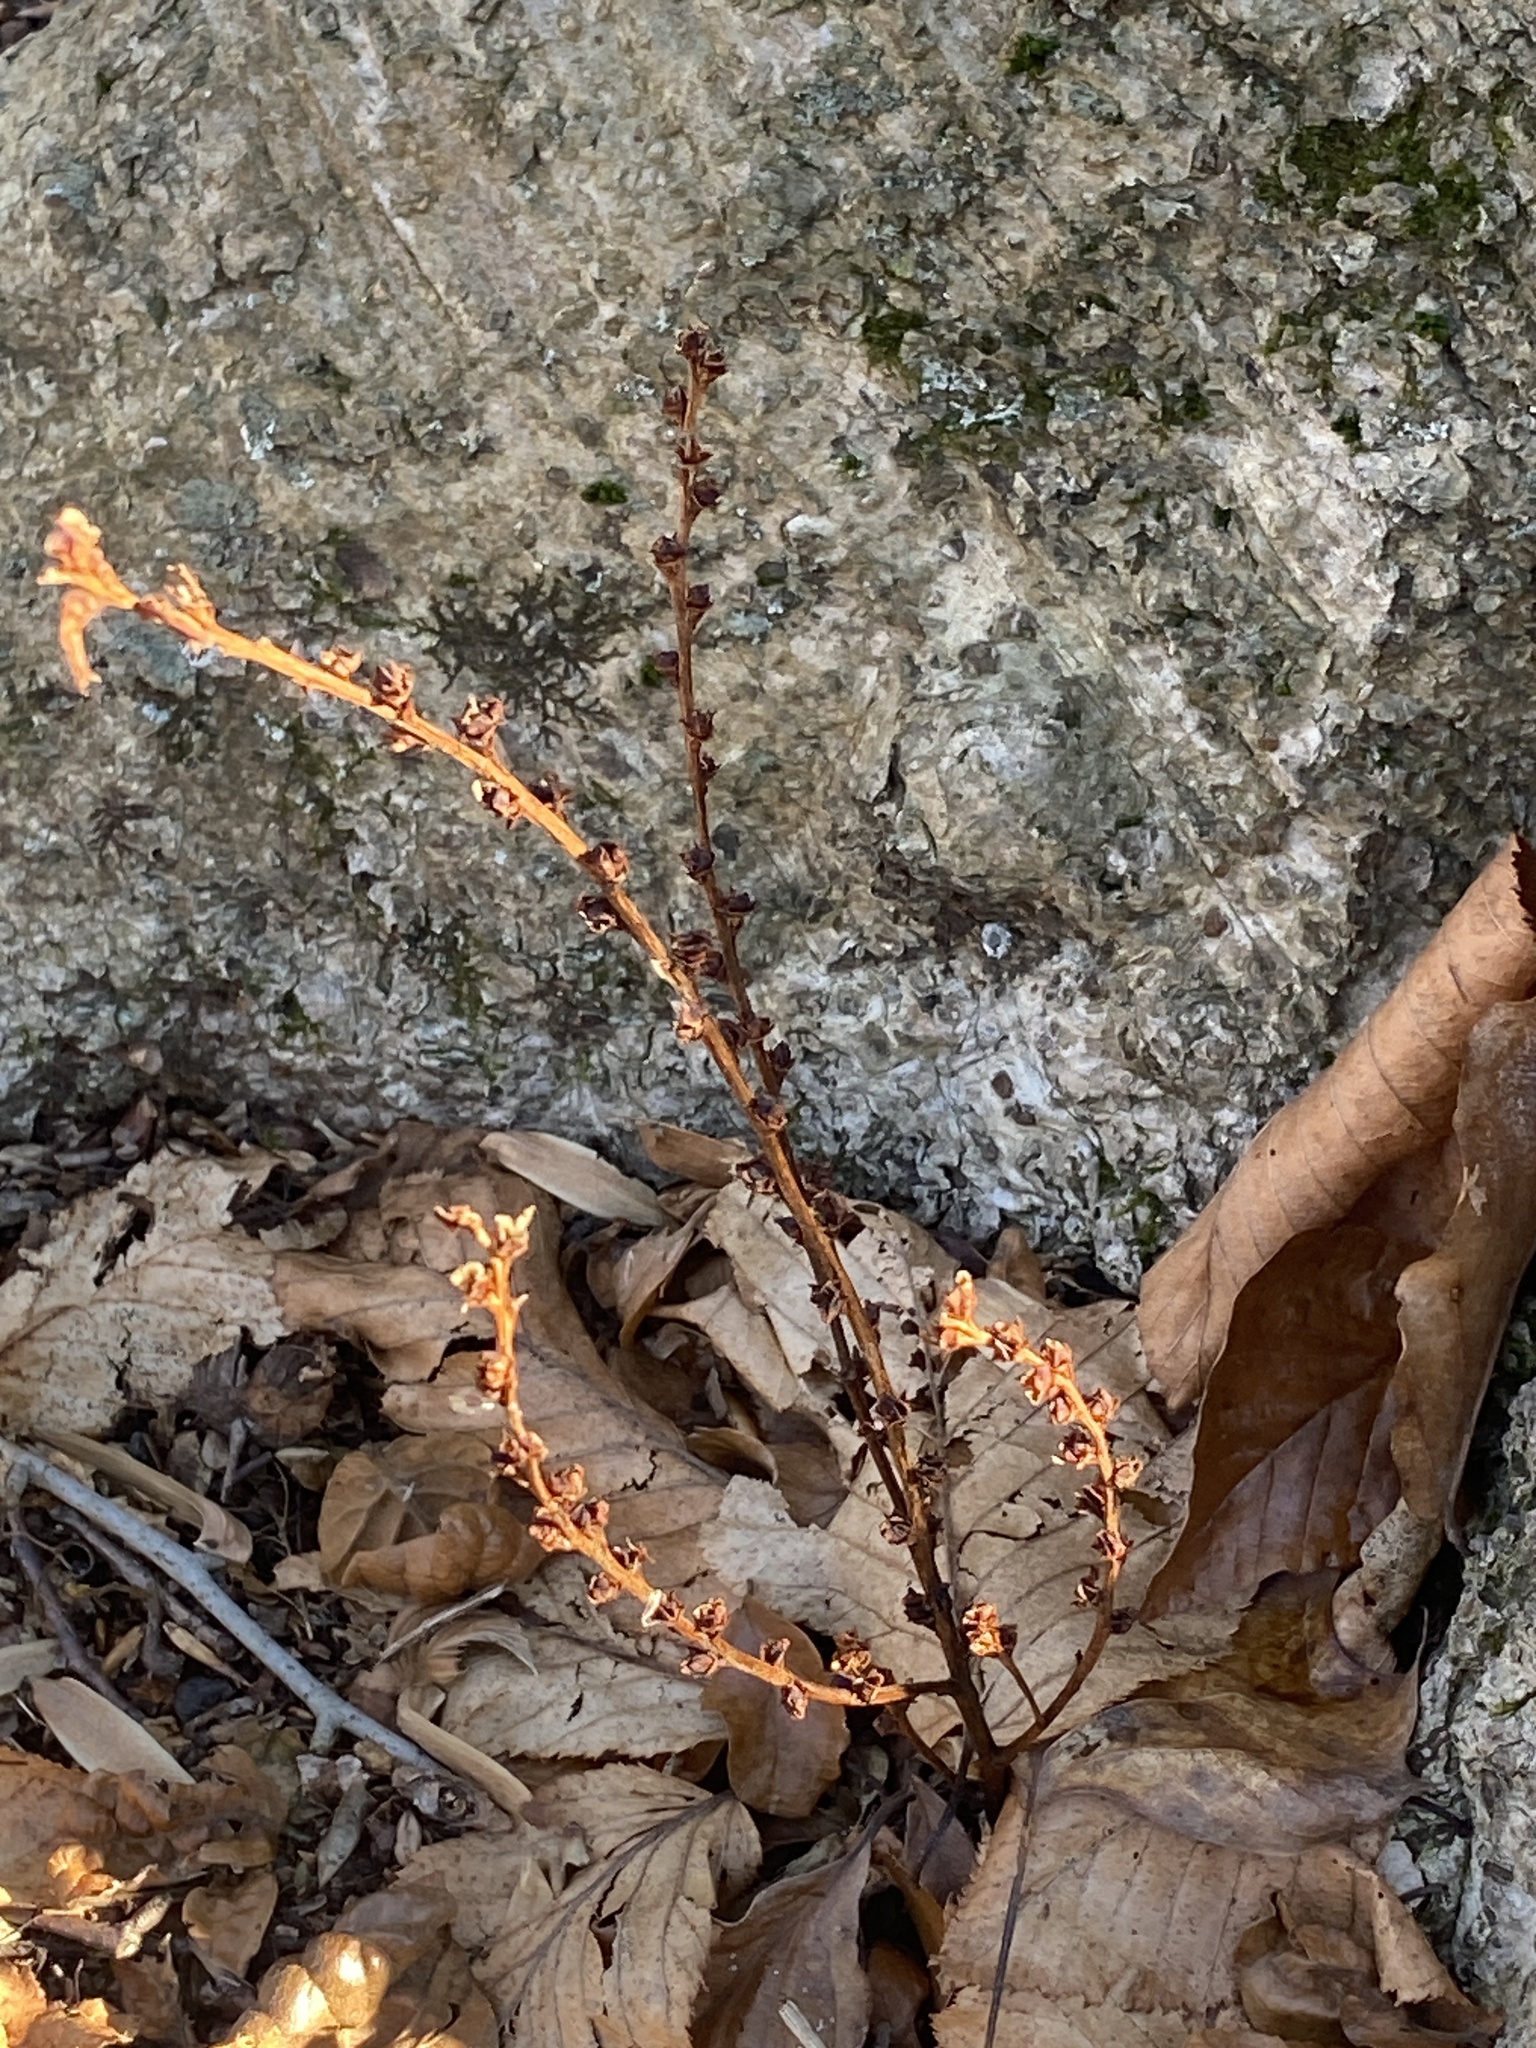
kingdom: Plantae
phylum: Tracheophyta
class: Magnoliopsida
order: Lamiales
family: Orobanchaceae
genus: Epifagus
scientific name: Epifagus virginiana
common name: Beechdrops
